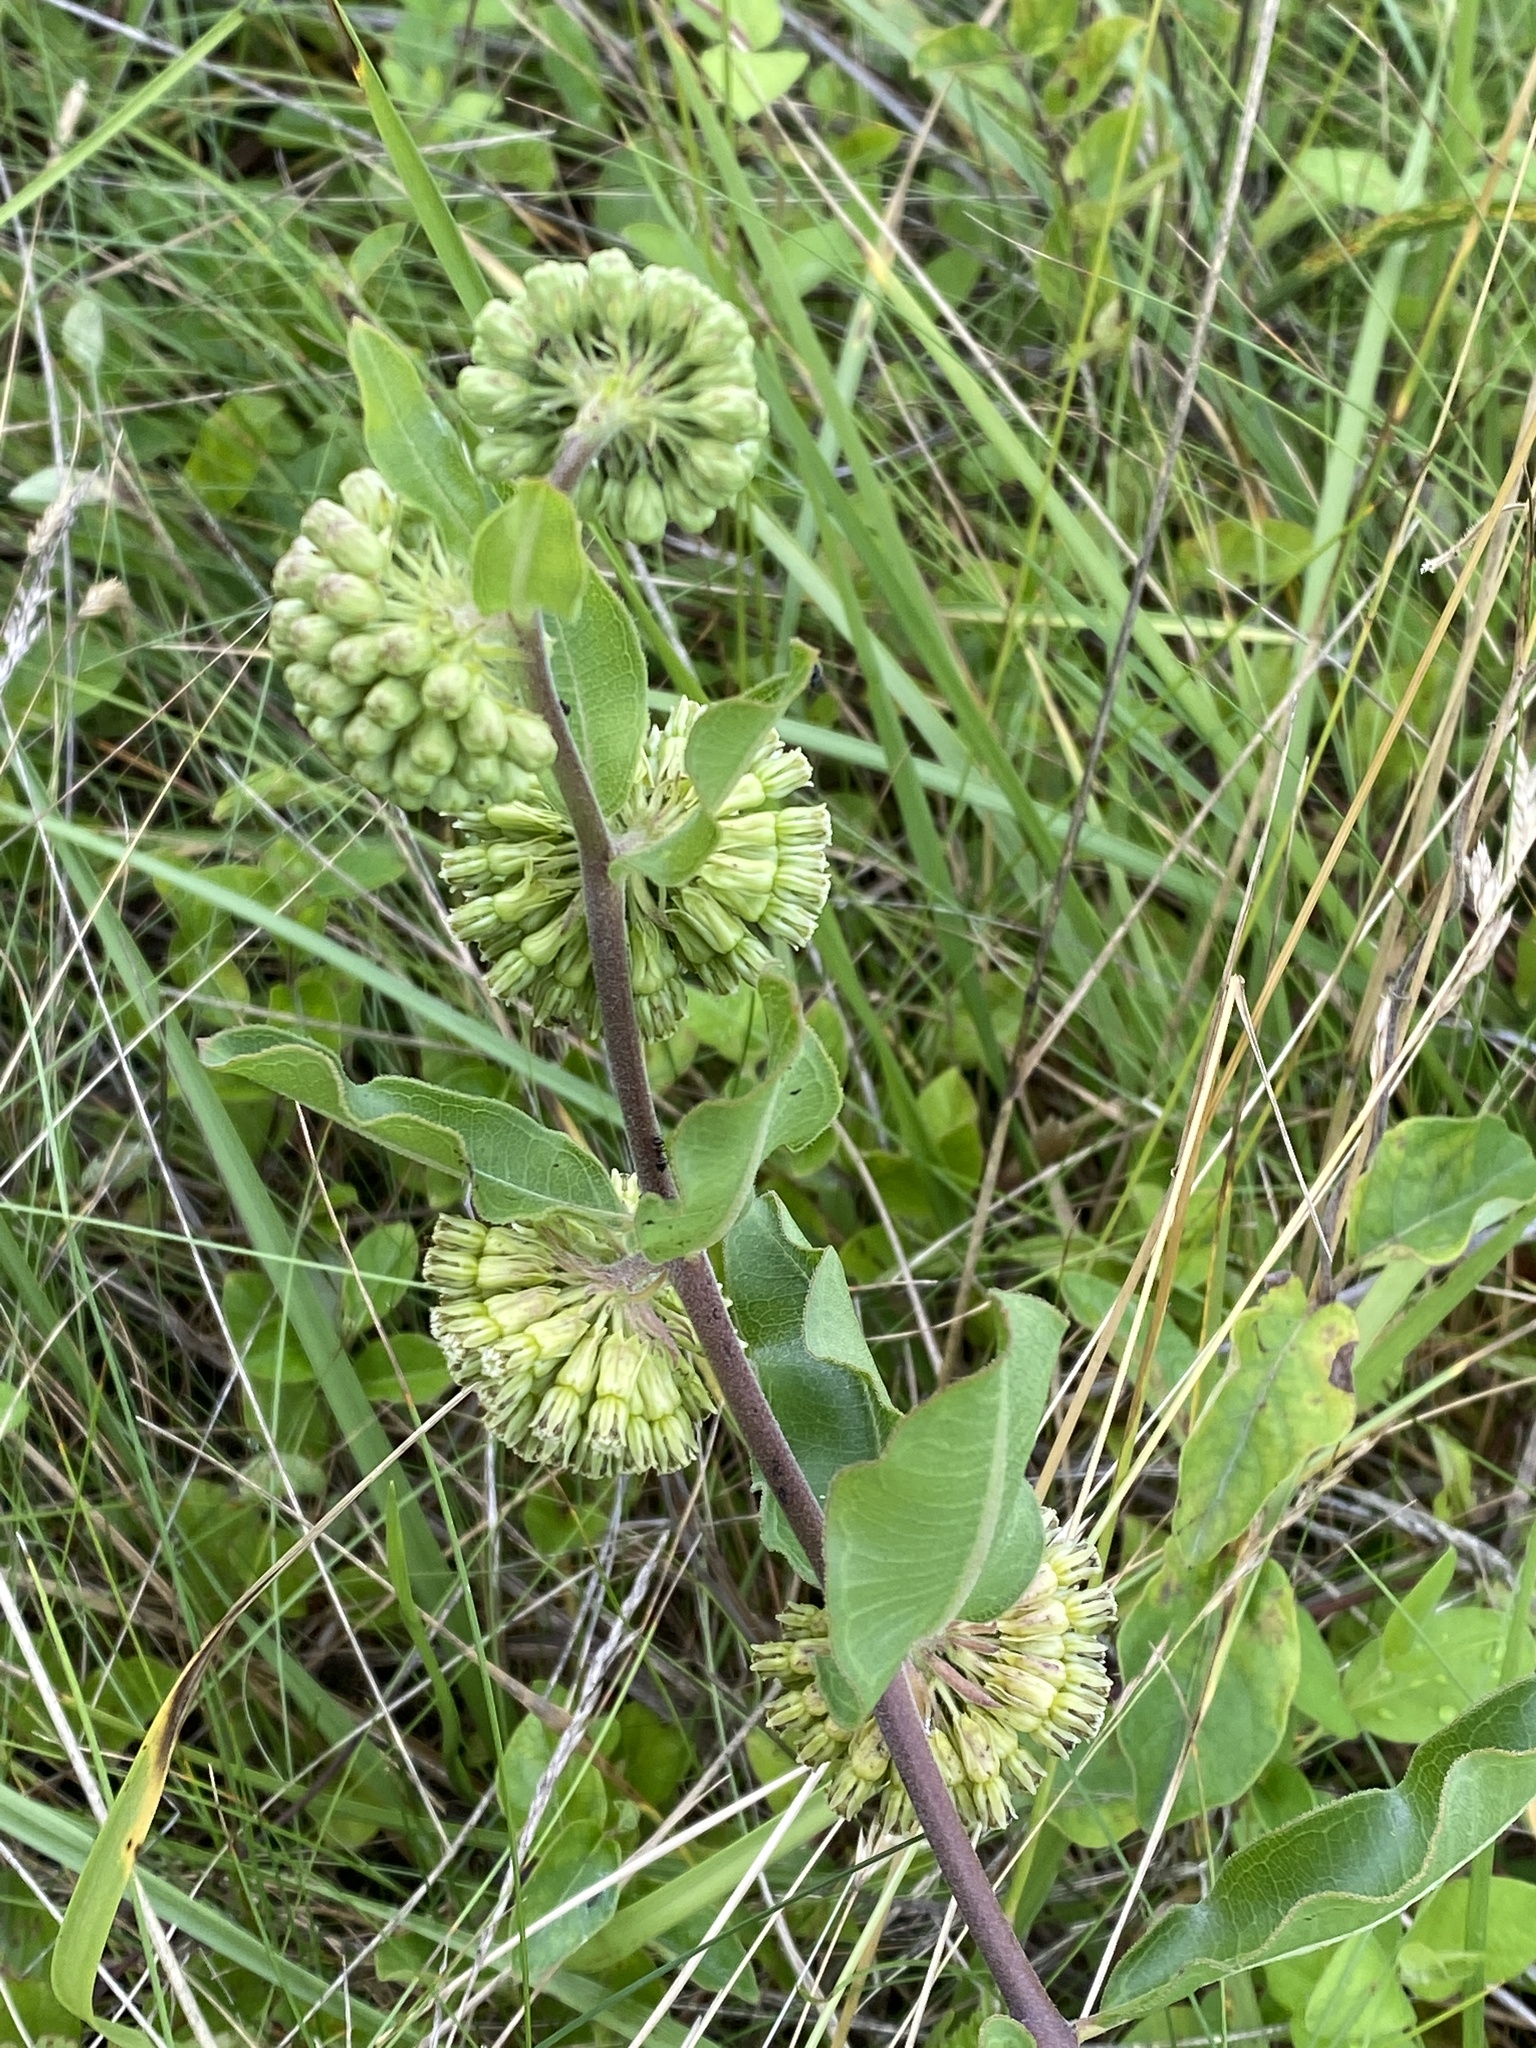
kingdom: Plantae
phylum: Tracheophyta
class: Magnoliopsida
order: Gentianales
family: Apocynaceae
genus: Asclepias
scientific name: Asclepias viridiflora
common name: Green comet milkweed
